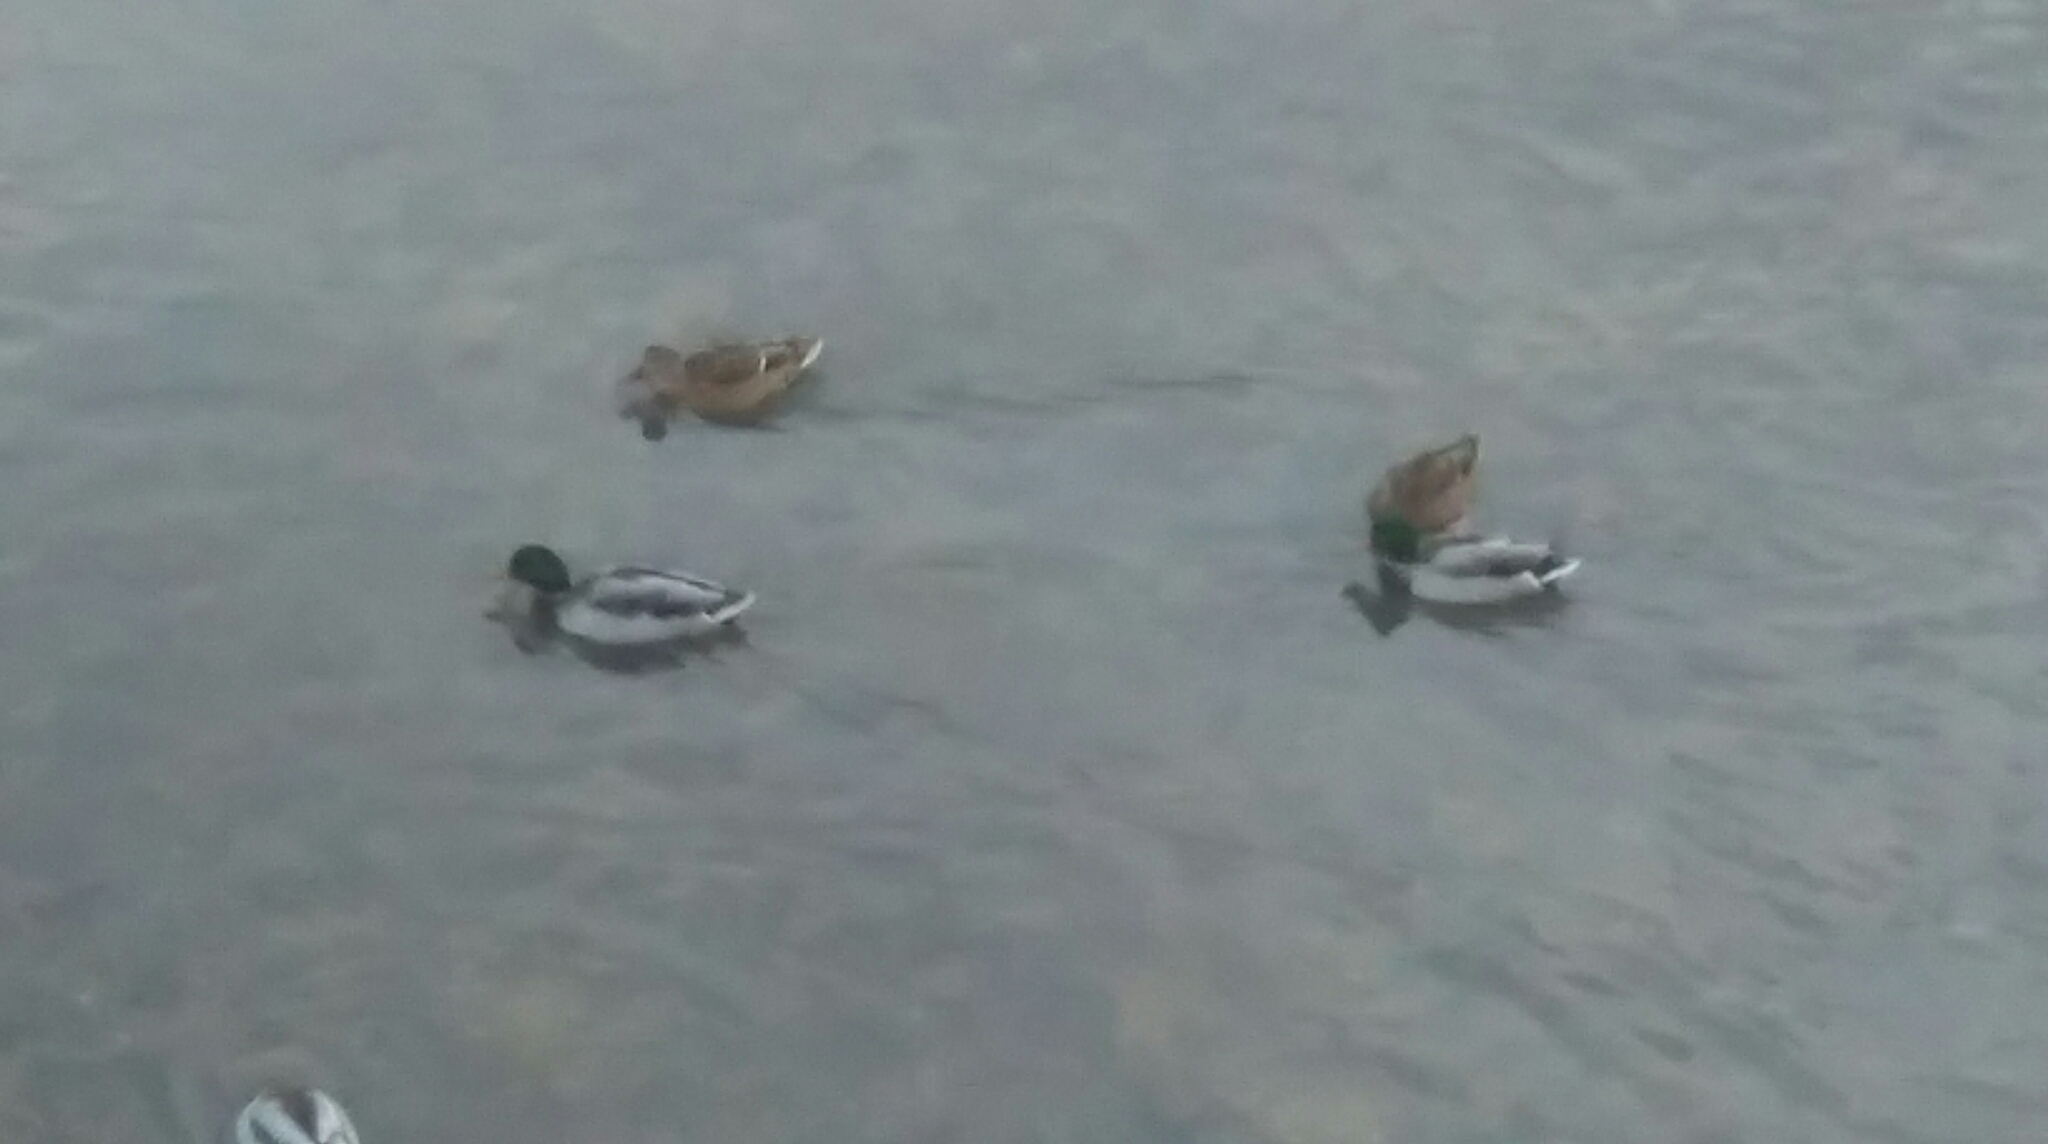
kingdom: Animalia
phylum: Chordata
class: Aves
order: Anseriformes
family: Anatidae
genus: Anas
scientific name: Anas platyrhynchos
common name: Mallard
